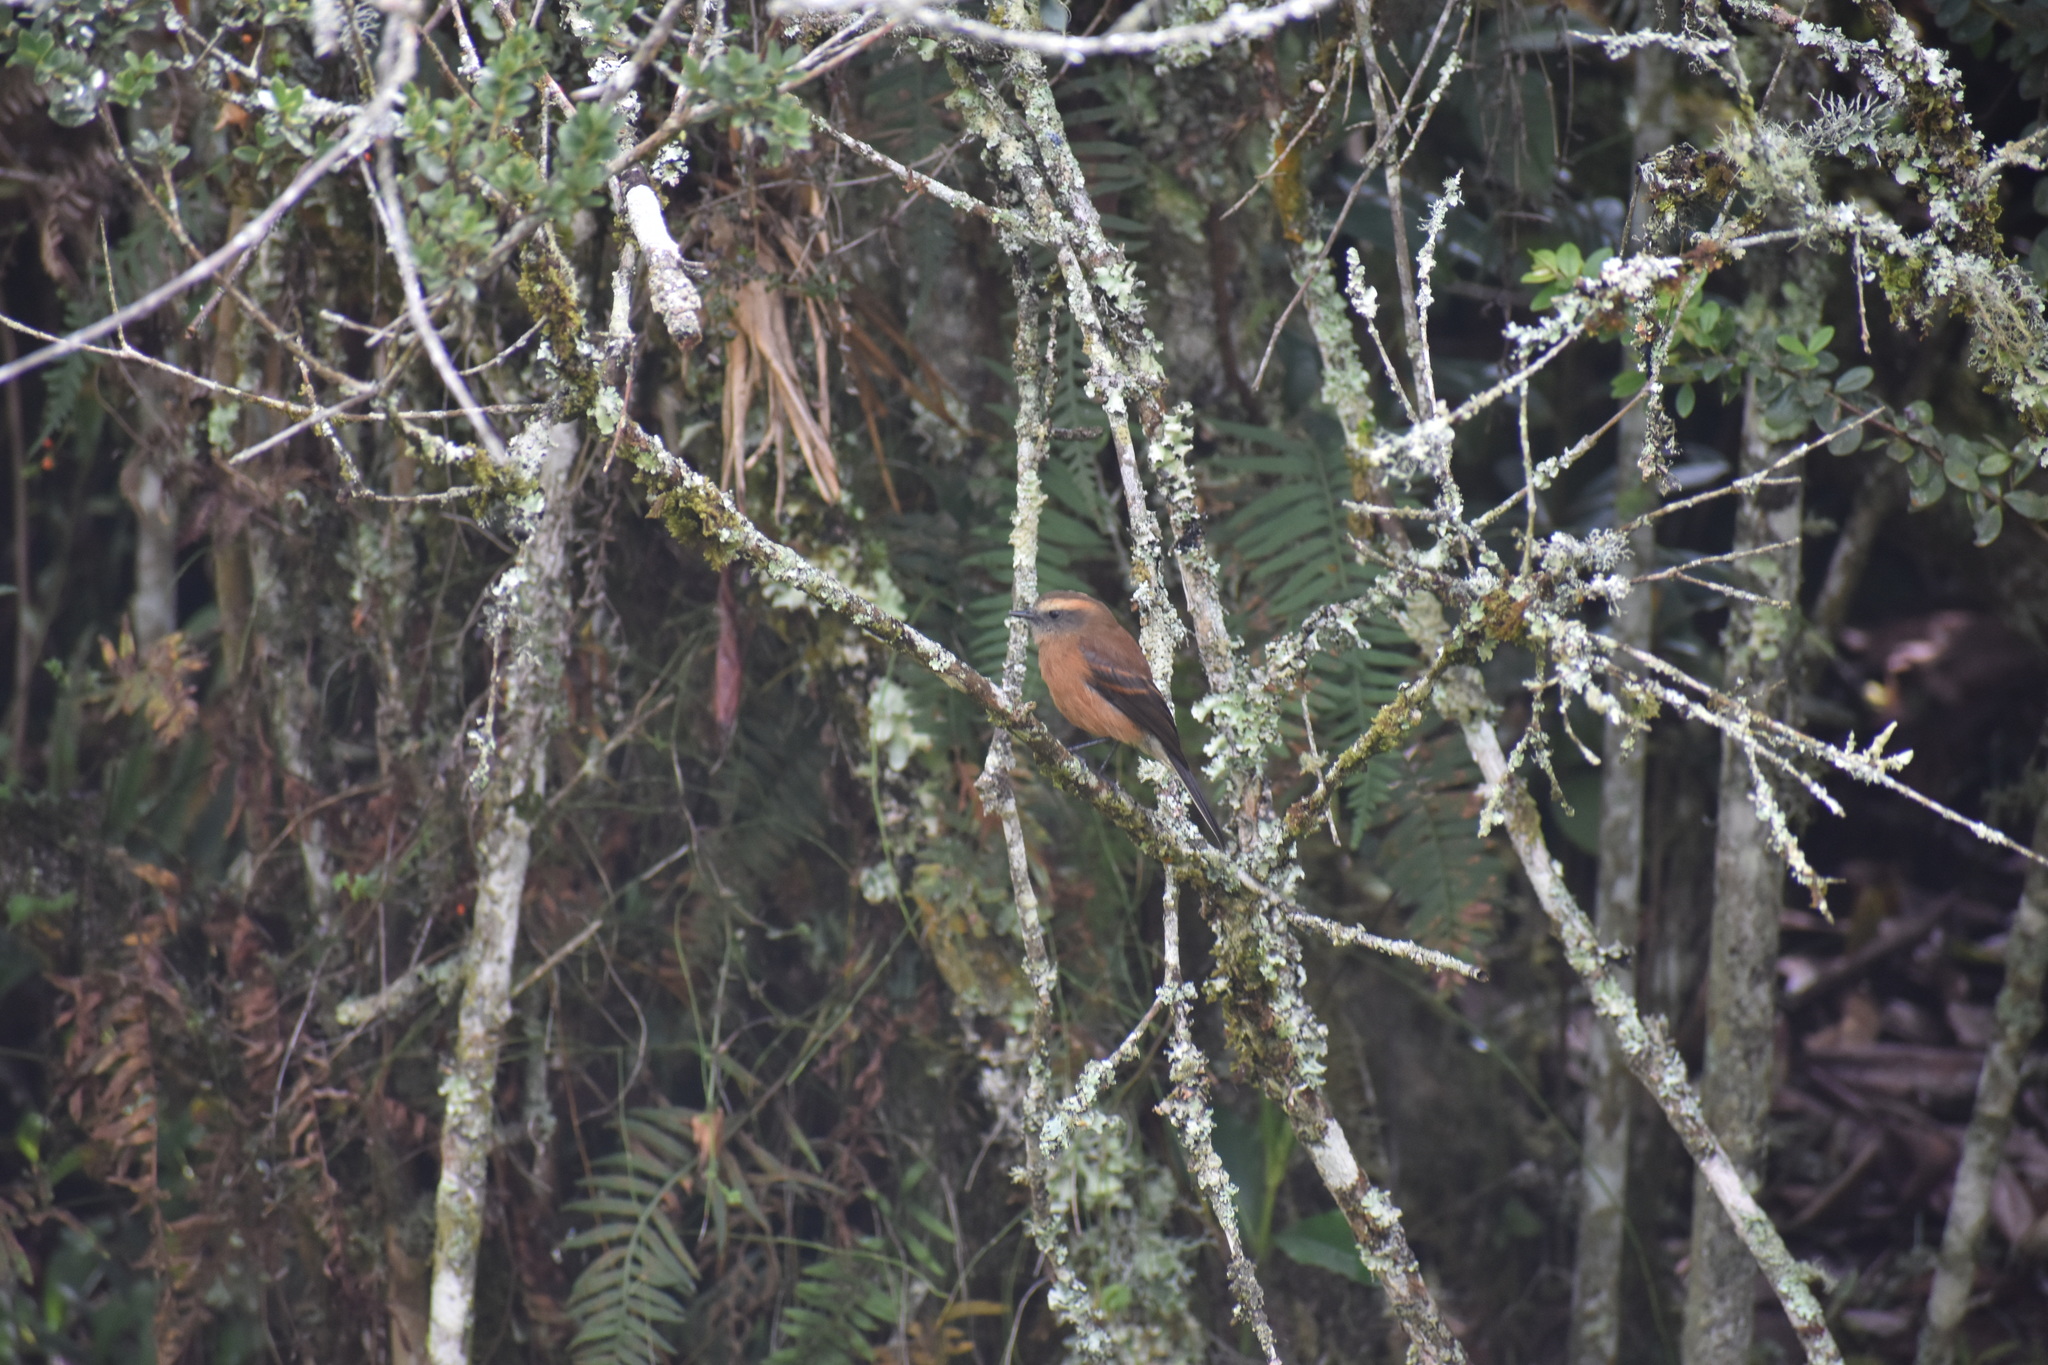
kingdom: Animalia
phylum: Chordata
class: Aves
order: Passeriformes
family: Tyrannidae
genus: Ochthoeca
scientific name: Ochthoeca fumicolor
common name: Brown-backed chat-tyrant
